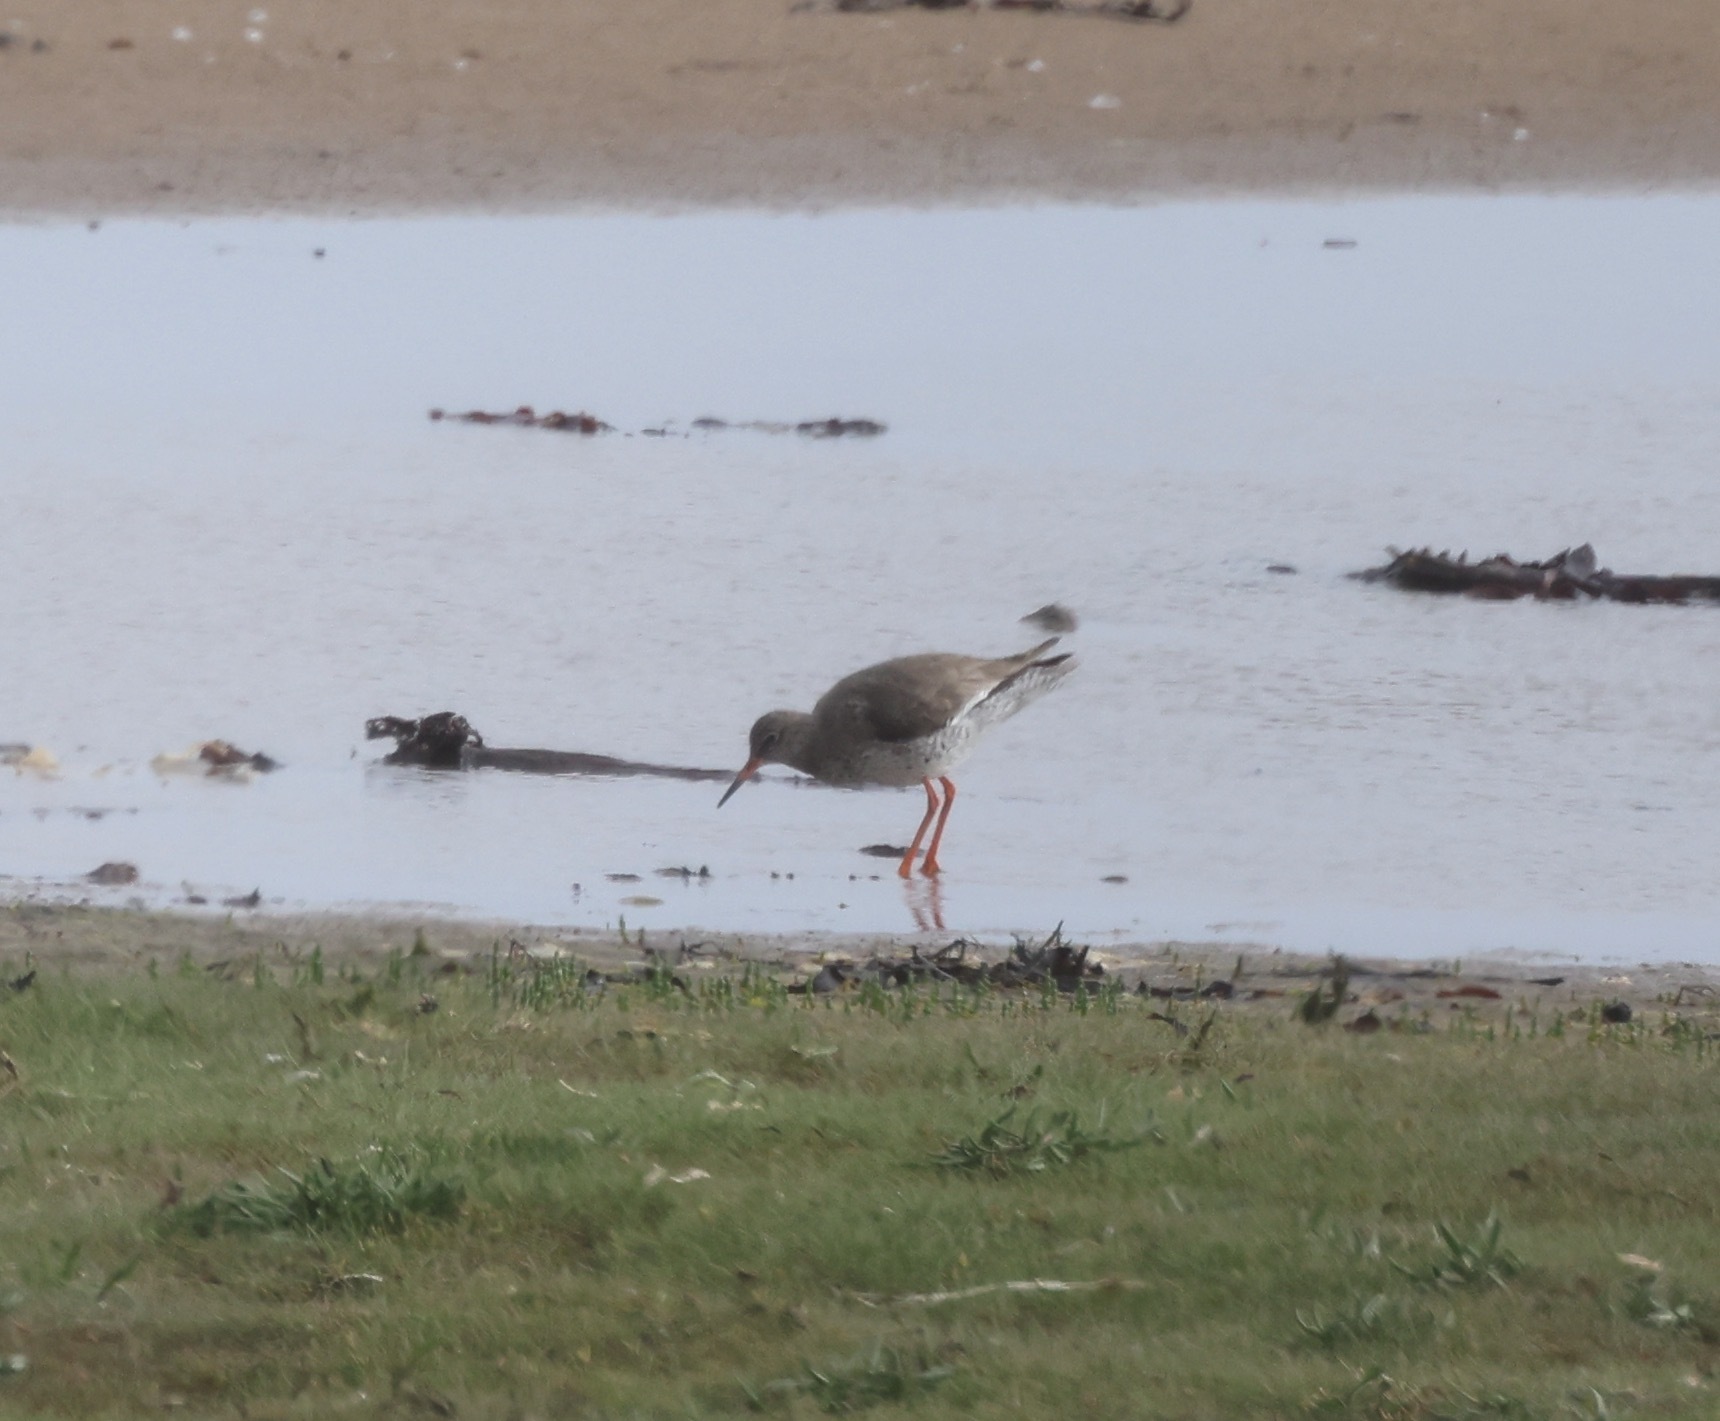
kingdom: Animalia
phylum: Chordata
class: Aves
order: Charadriiformes
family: Scolopacidae
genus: Tringa
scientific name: Tringa totanus
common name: Common redshank
